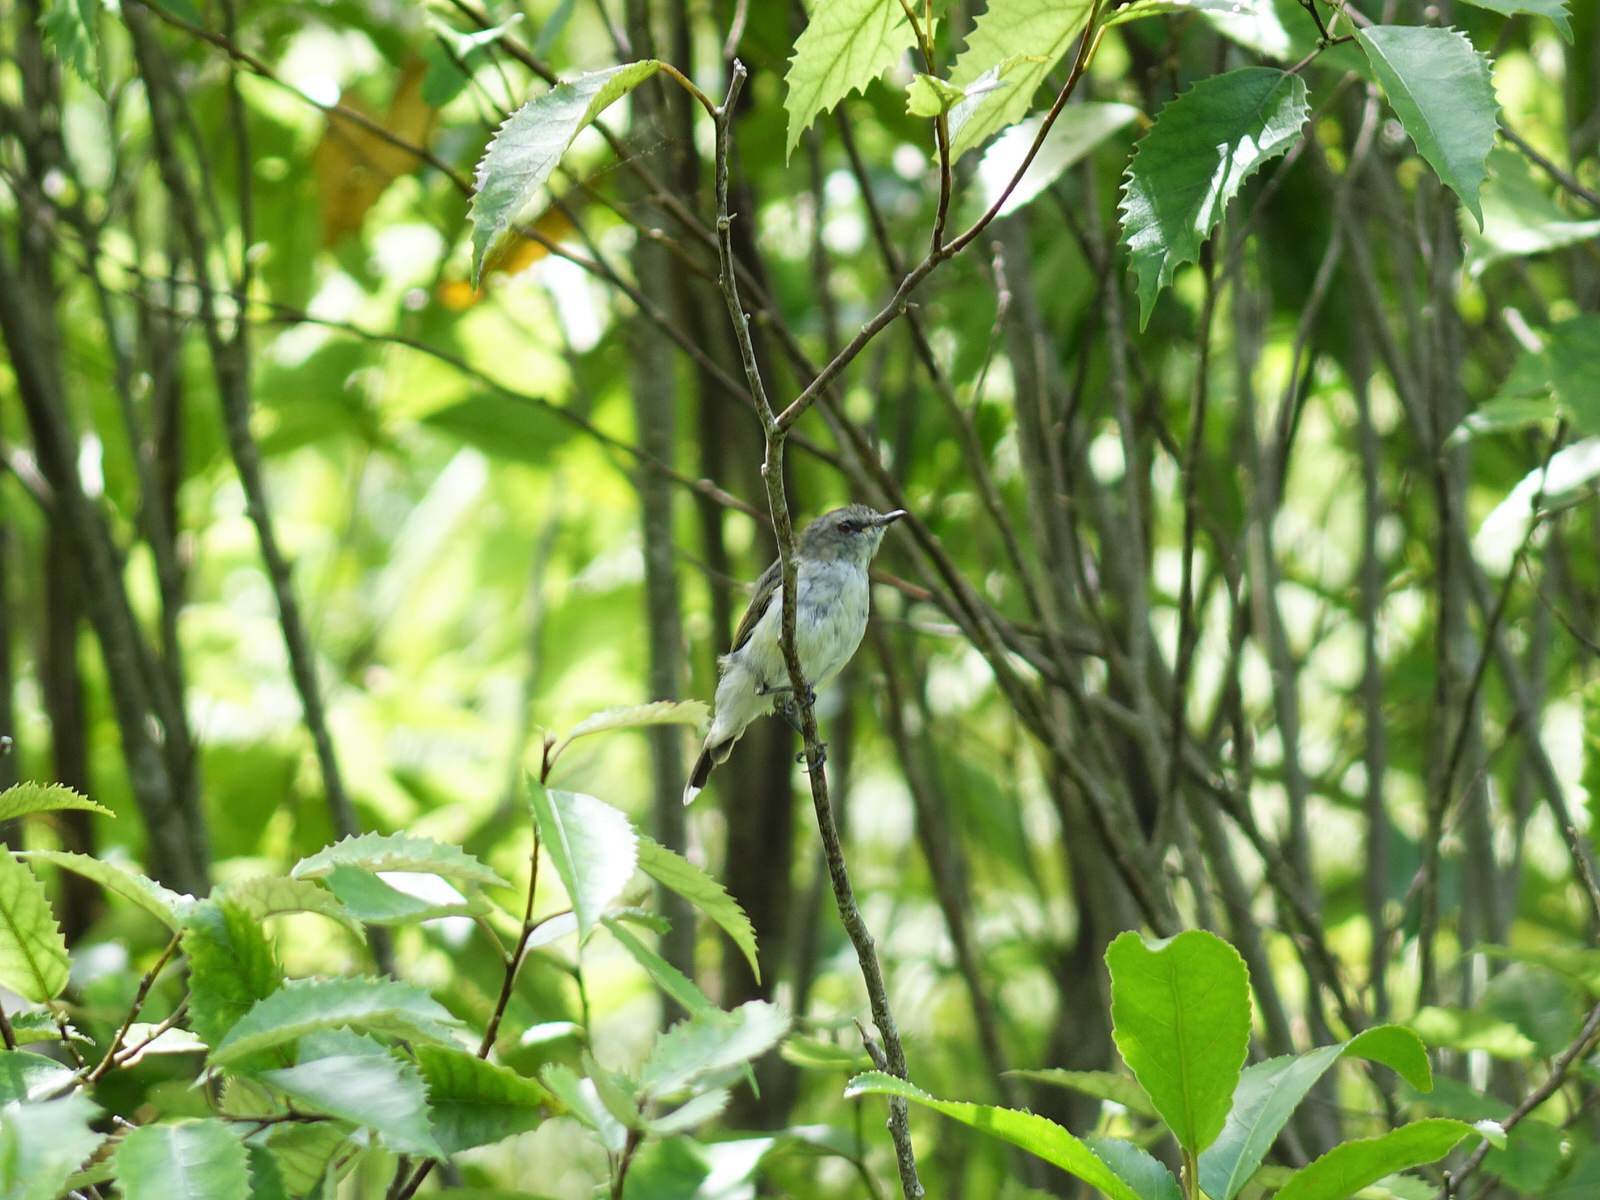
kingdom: Animalia
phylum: Chordata
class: Aves
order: Passeriformes
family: Acanthizidae
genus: Gerygone
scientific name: Gerygone igata
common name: Grey gerygone
